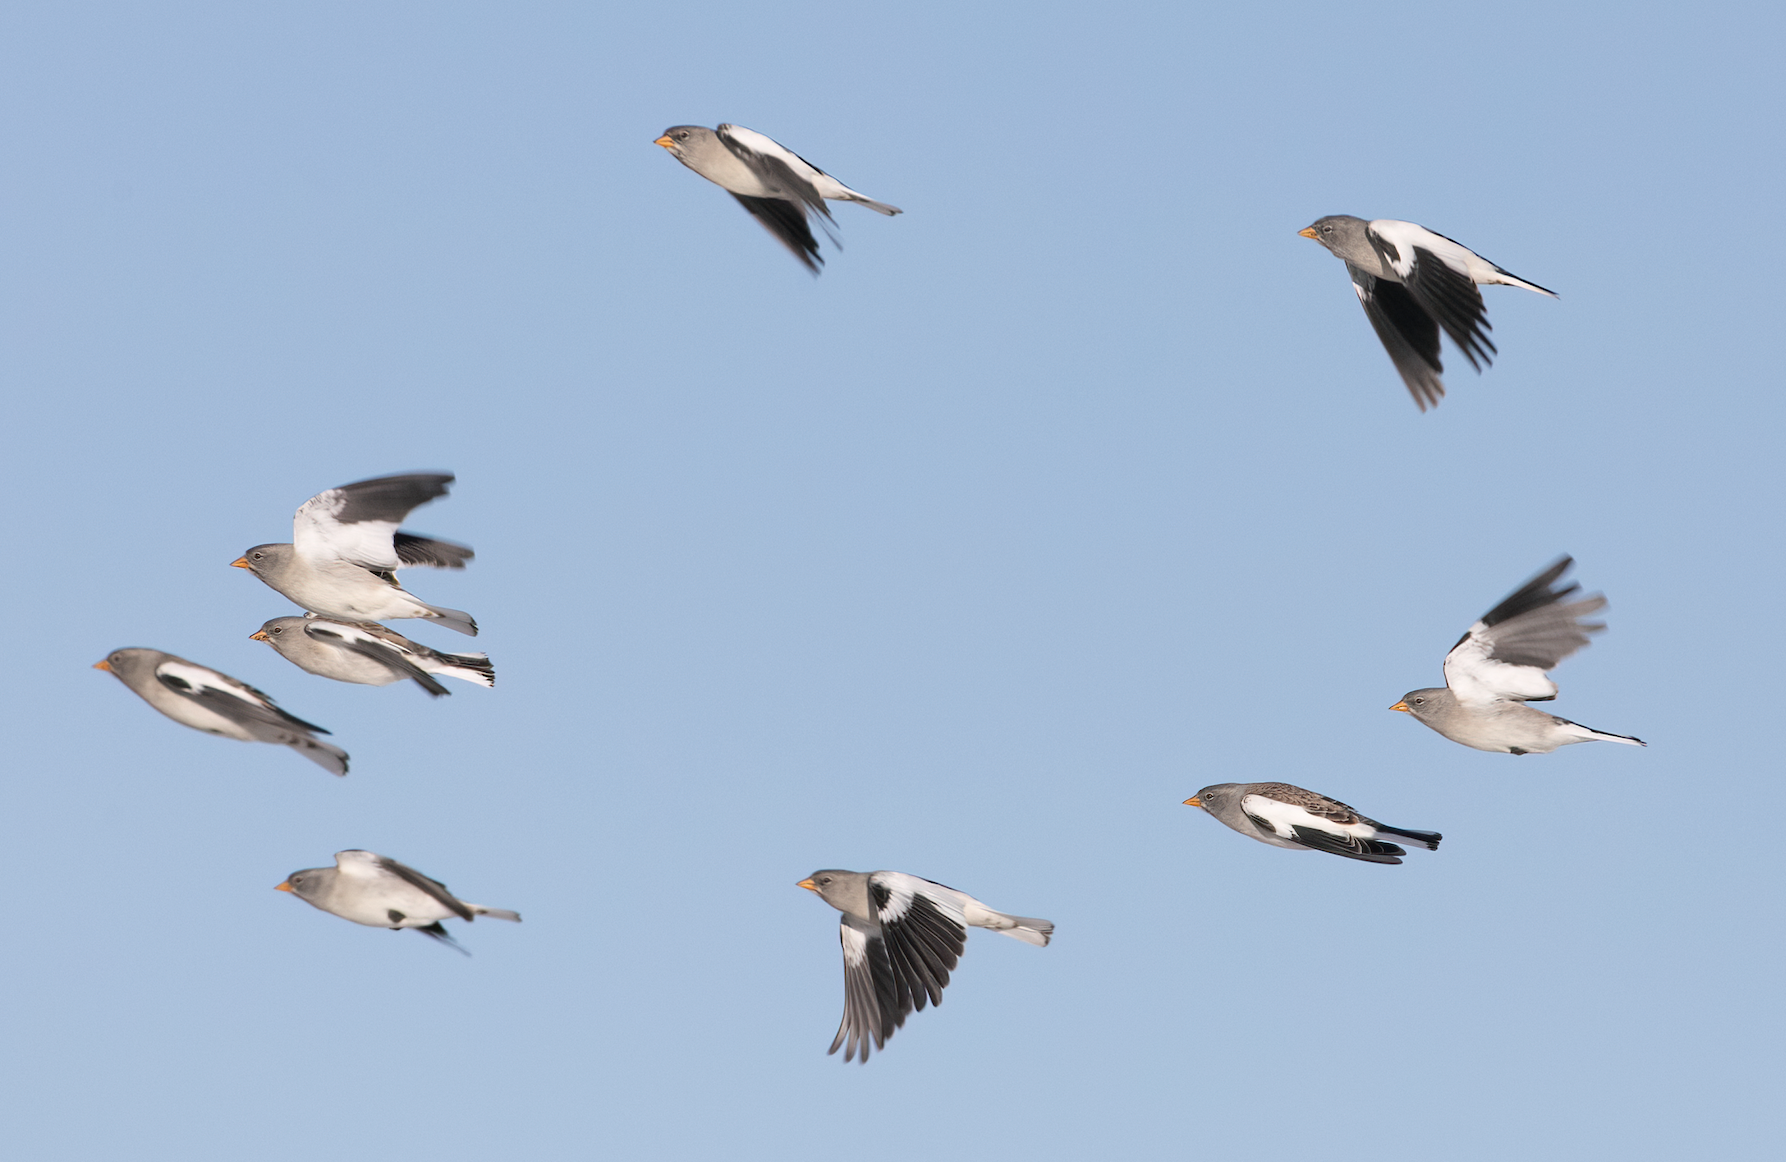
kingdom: Animalia
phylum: Chordata
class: Aves
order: Passeriformes
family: Passeridae
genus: Montifringilla
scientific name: Montifringilla nivalis
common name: White-winged snowfinch
